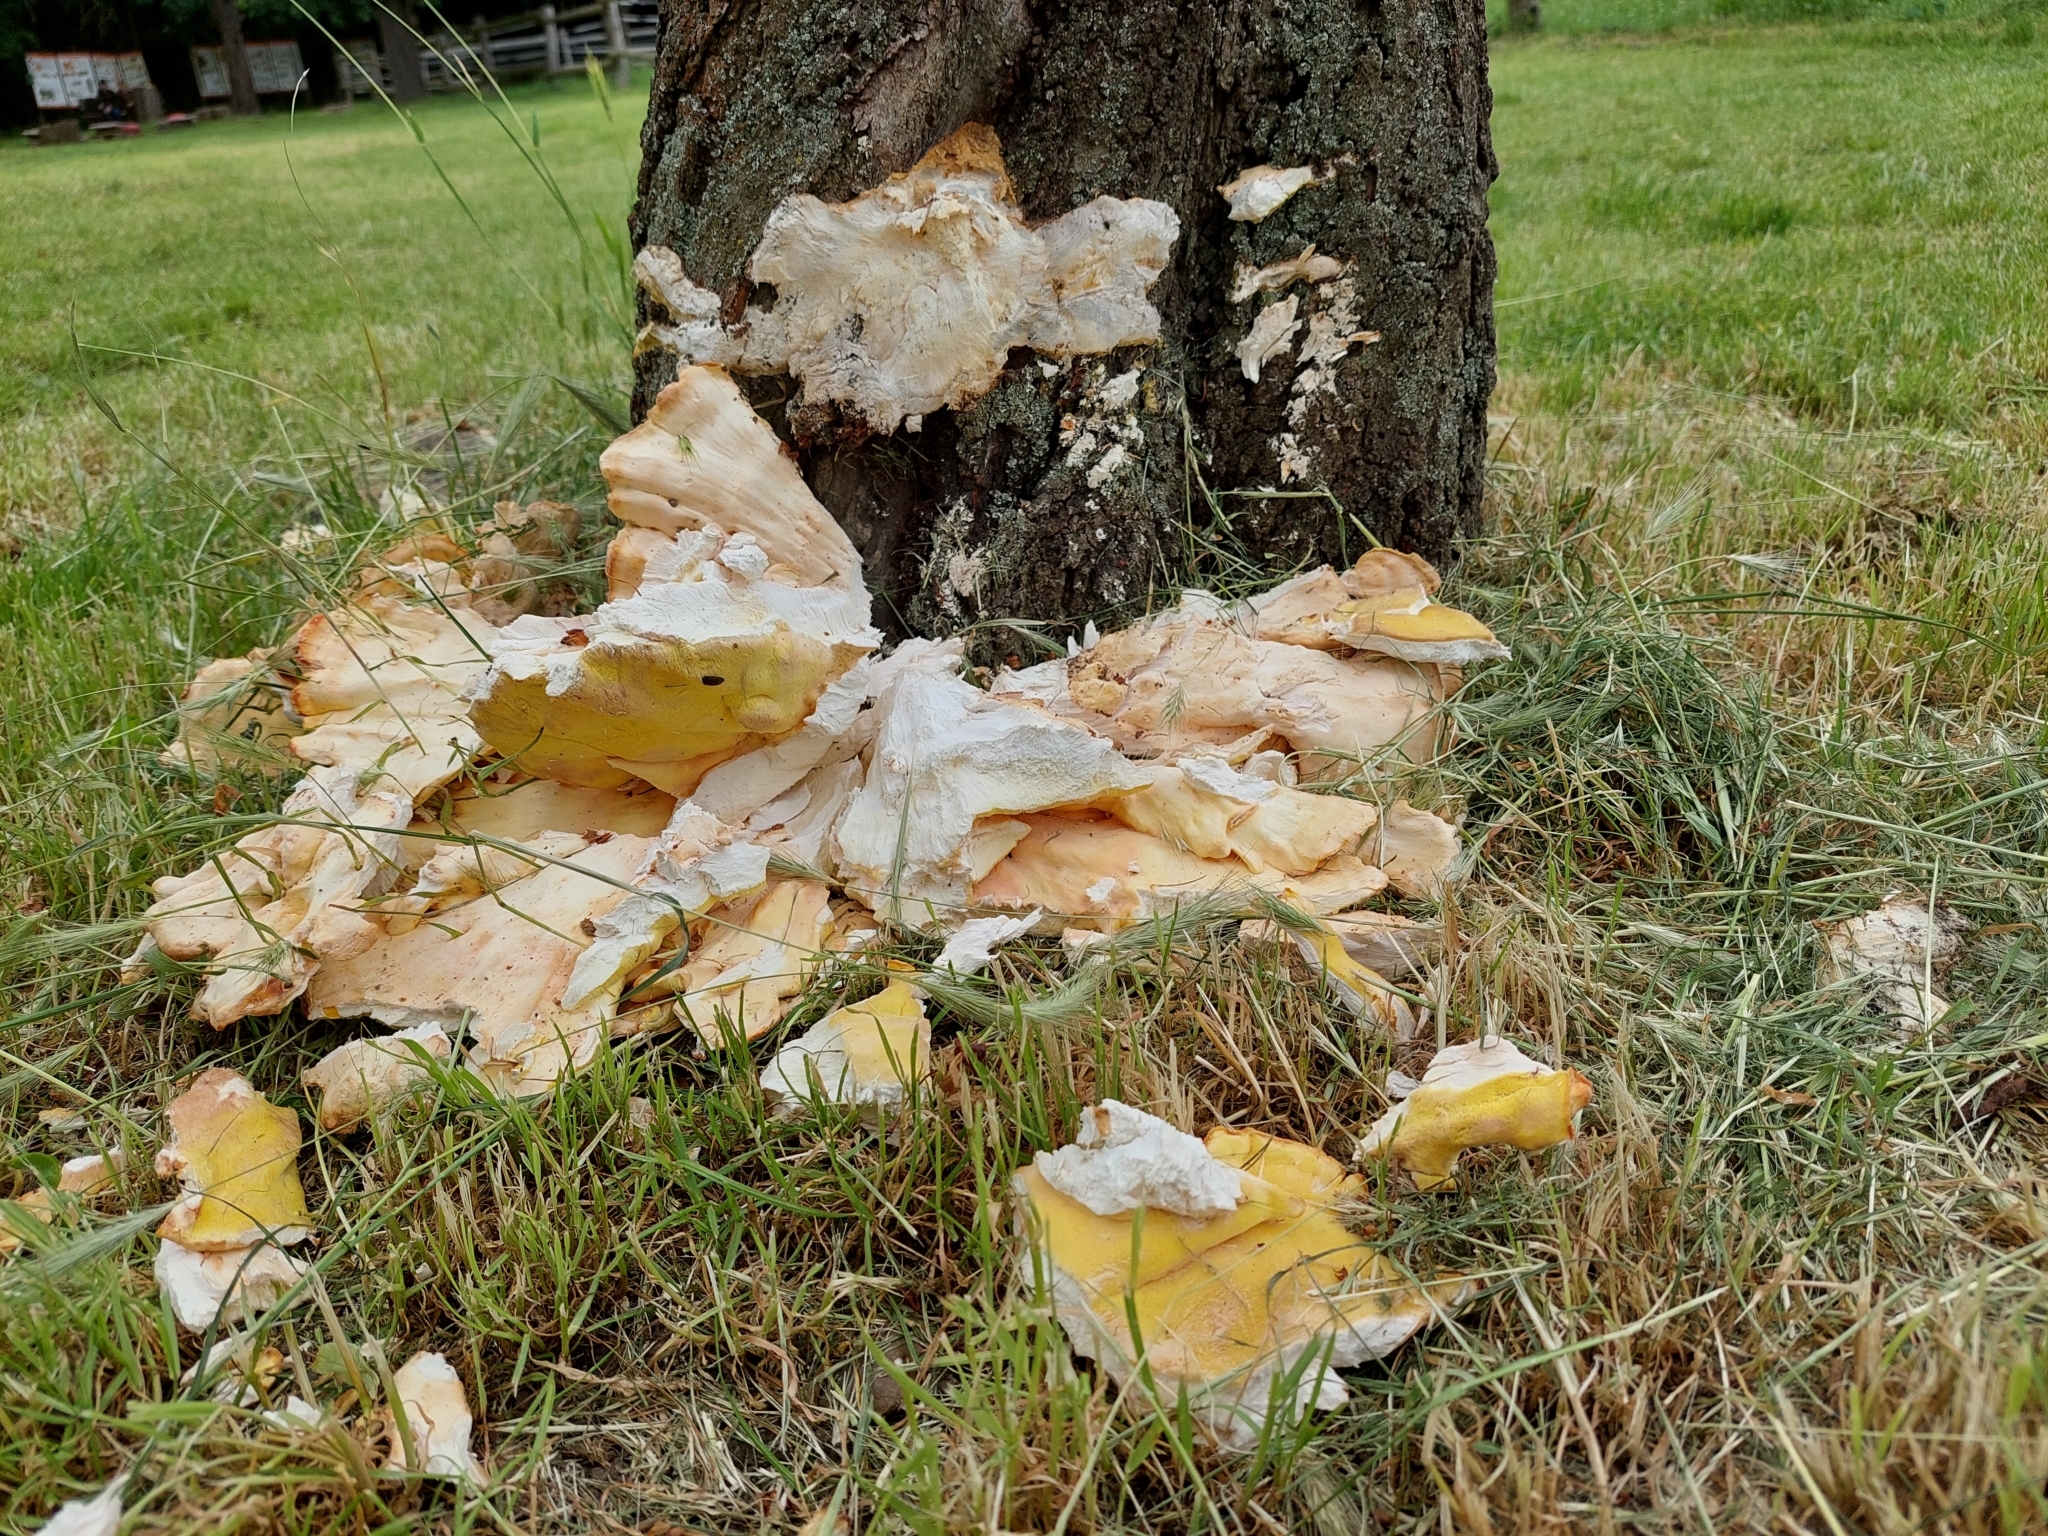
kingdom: Fungi
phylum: Basidiomycota
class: Agaricomycetes
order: Polyporales
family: Laetiporaceae
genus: Laetiporus
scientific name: Laetiporus sulphureus
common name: Chicken of the woods
